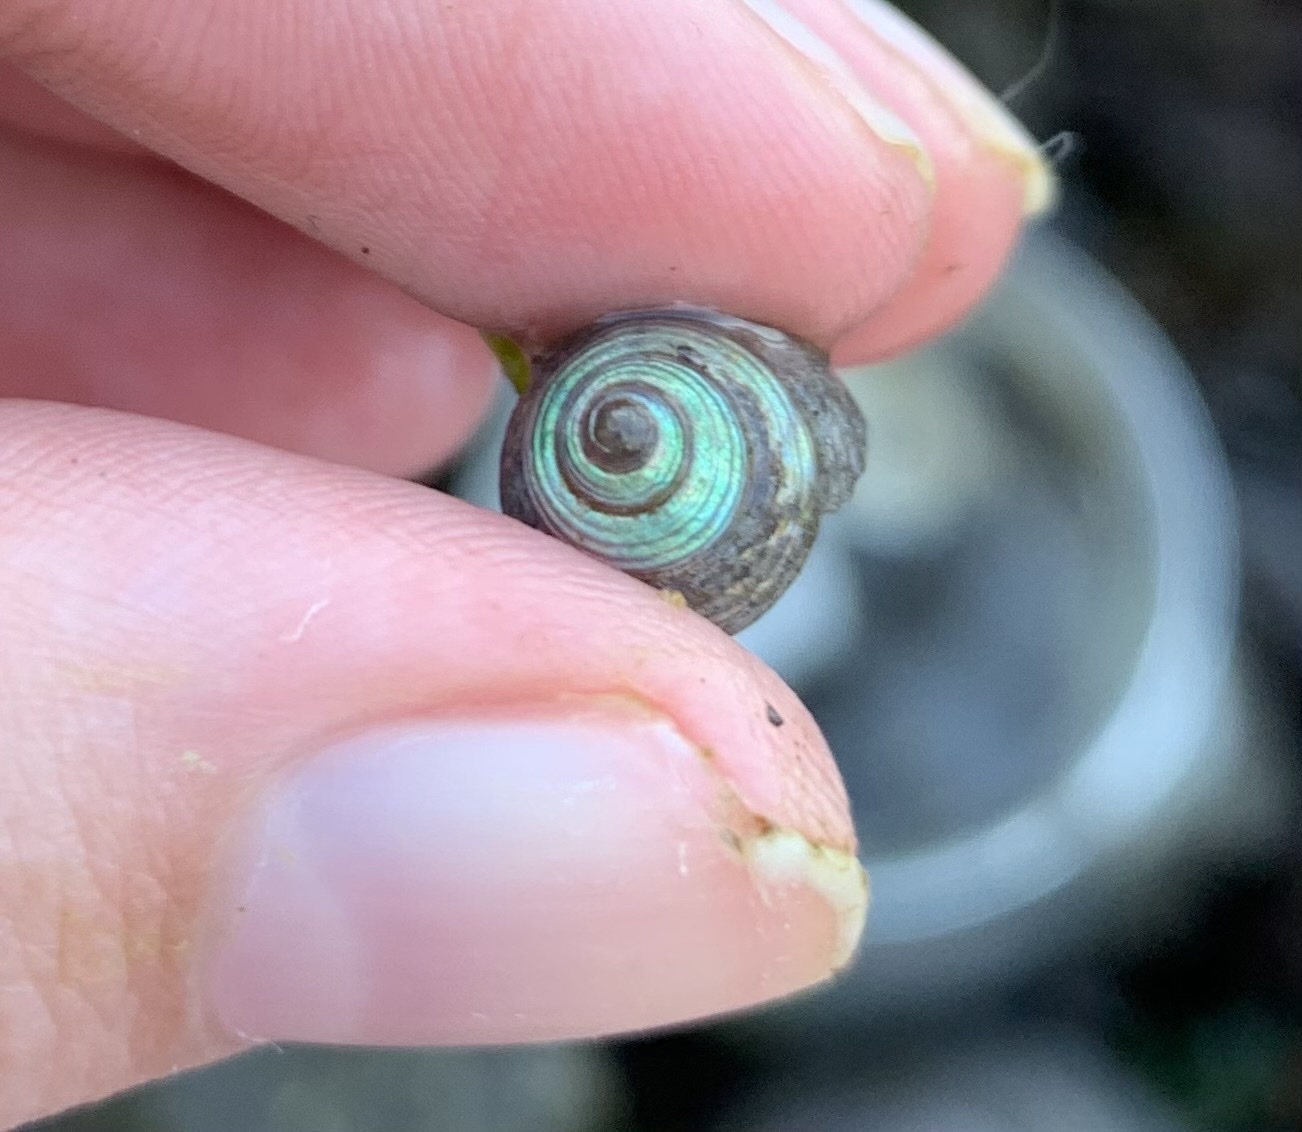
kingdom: Animalia
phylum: Mollusca
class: Gastropoda
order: Trochida
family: Calliostomatidae
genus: Calliostoma
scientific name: Calliostoma ligatum
